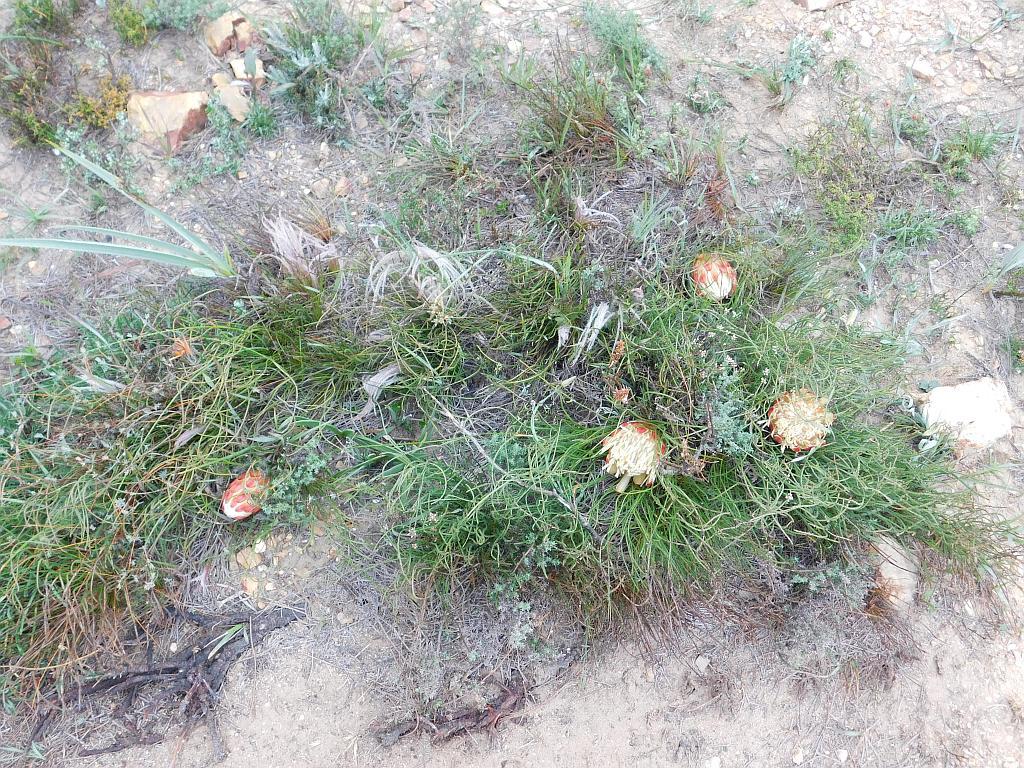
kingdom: Plantae
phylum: Tracheophyta
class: Magnoliopsida
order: Proteales
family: Proteaceae
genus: Protea
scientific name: Protea restionifolia
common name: Reed-leaf sugarbush
